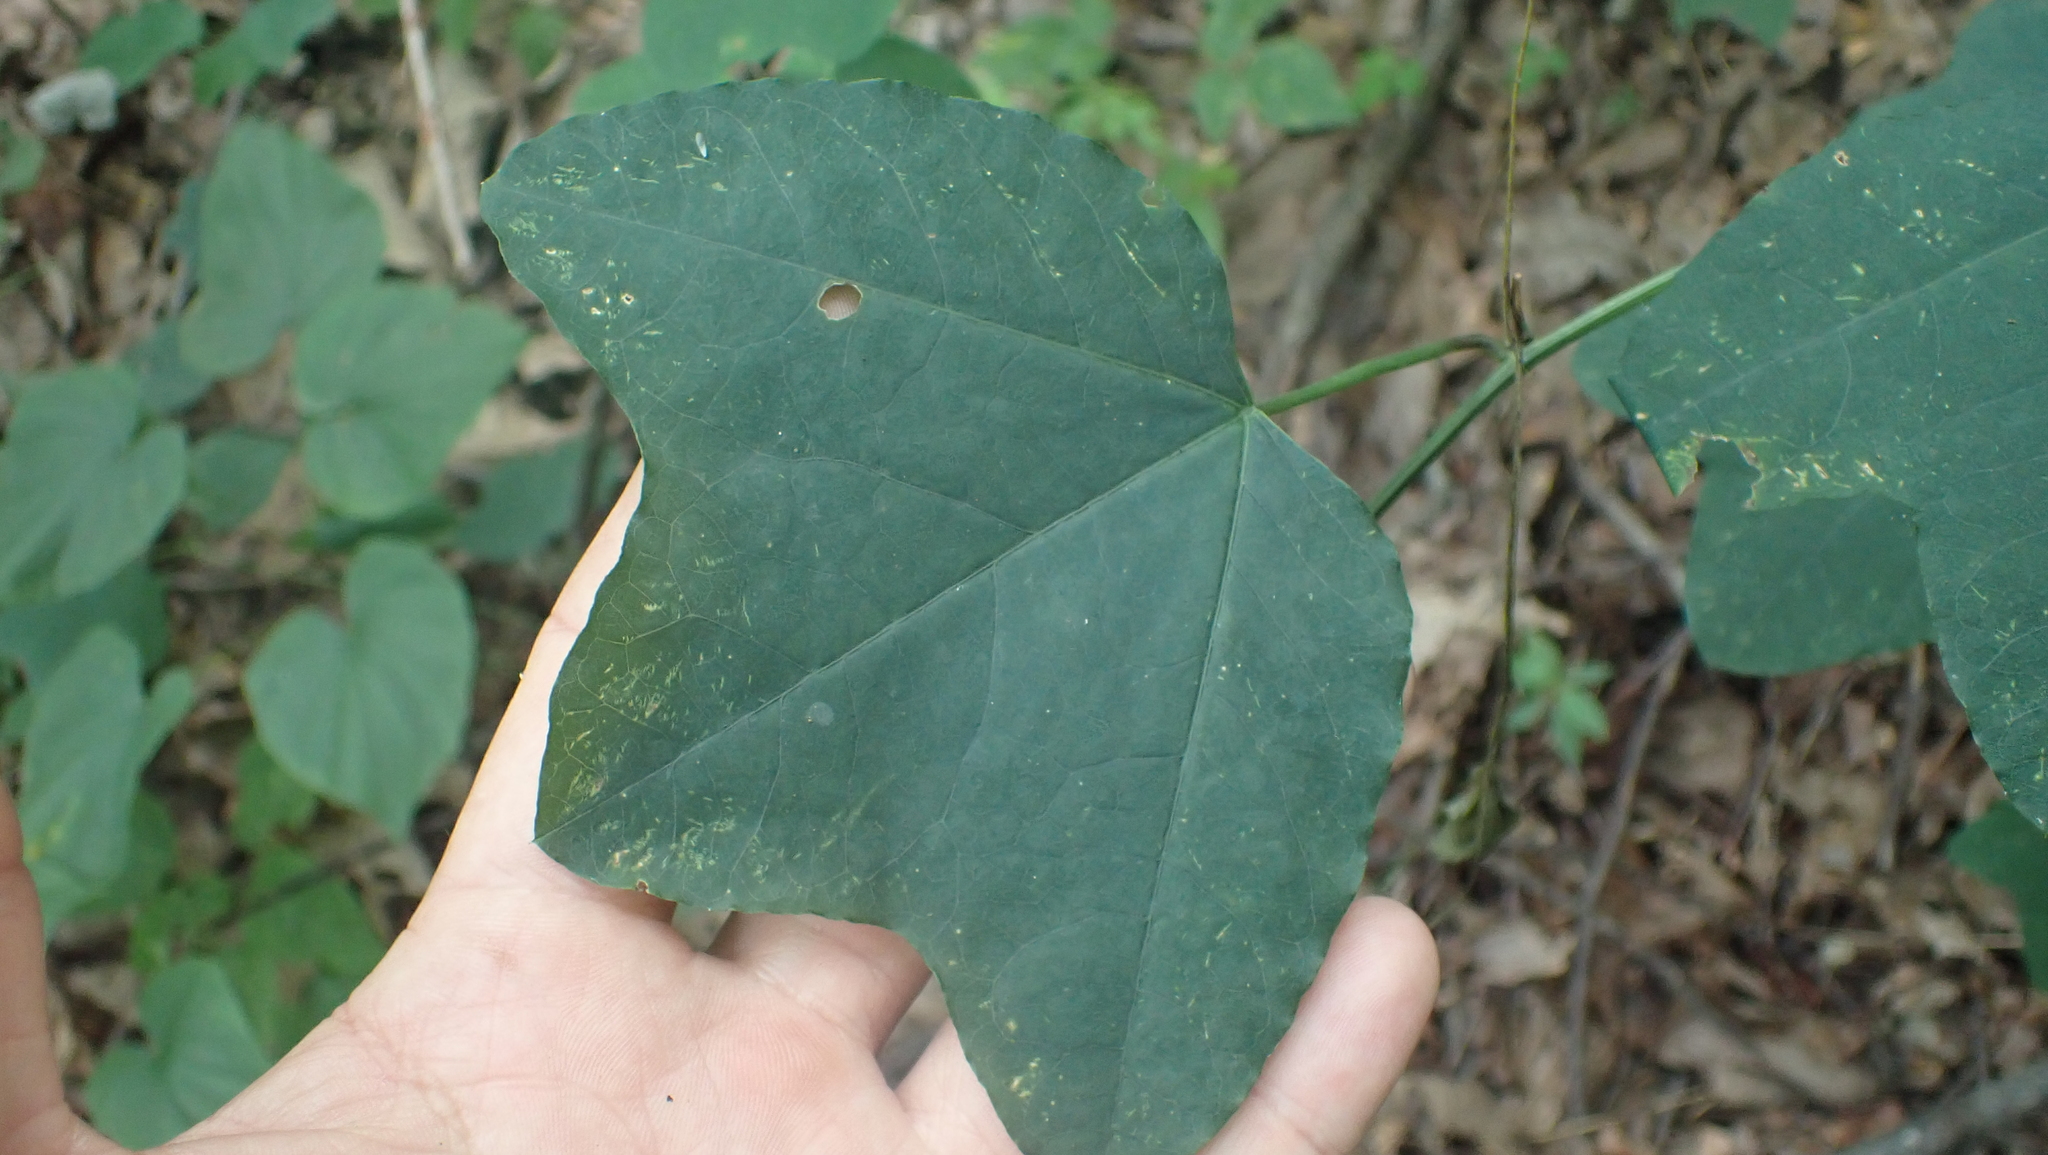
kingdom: Plantae
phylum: Tracheophyta
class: Magnoliopsida
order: Malpighiales
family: Passifloraceae
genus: Passiflora
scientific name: Passiflora lutea
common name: Yellow passionflower
